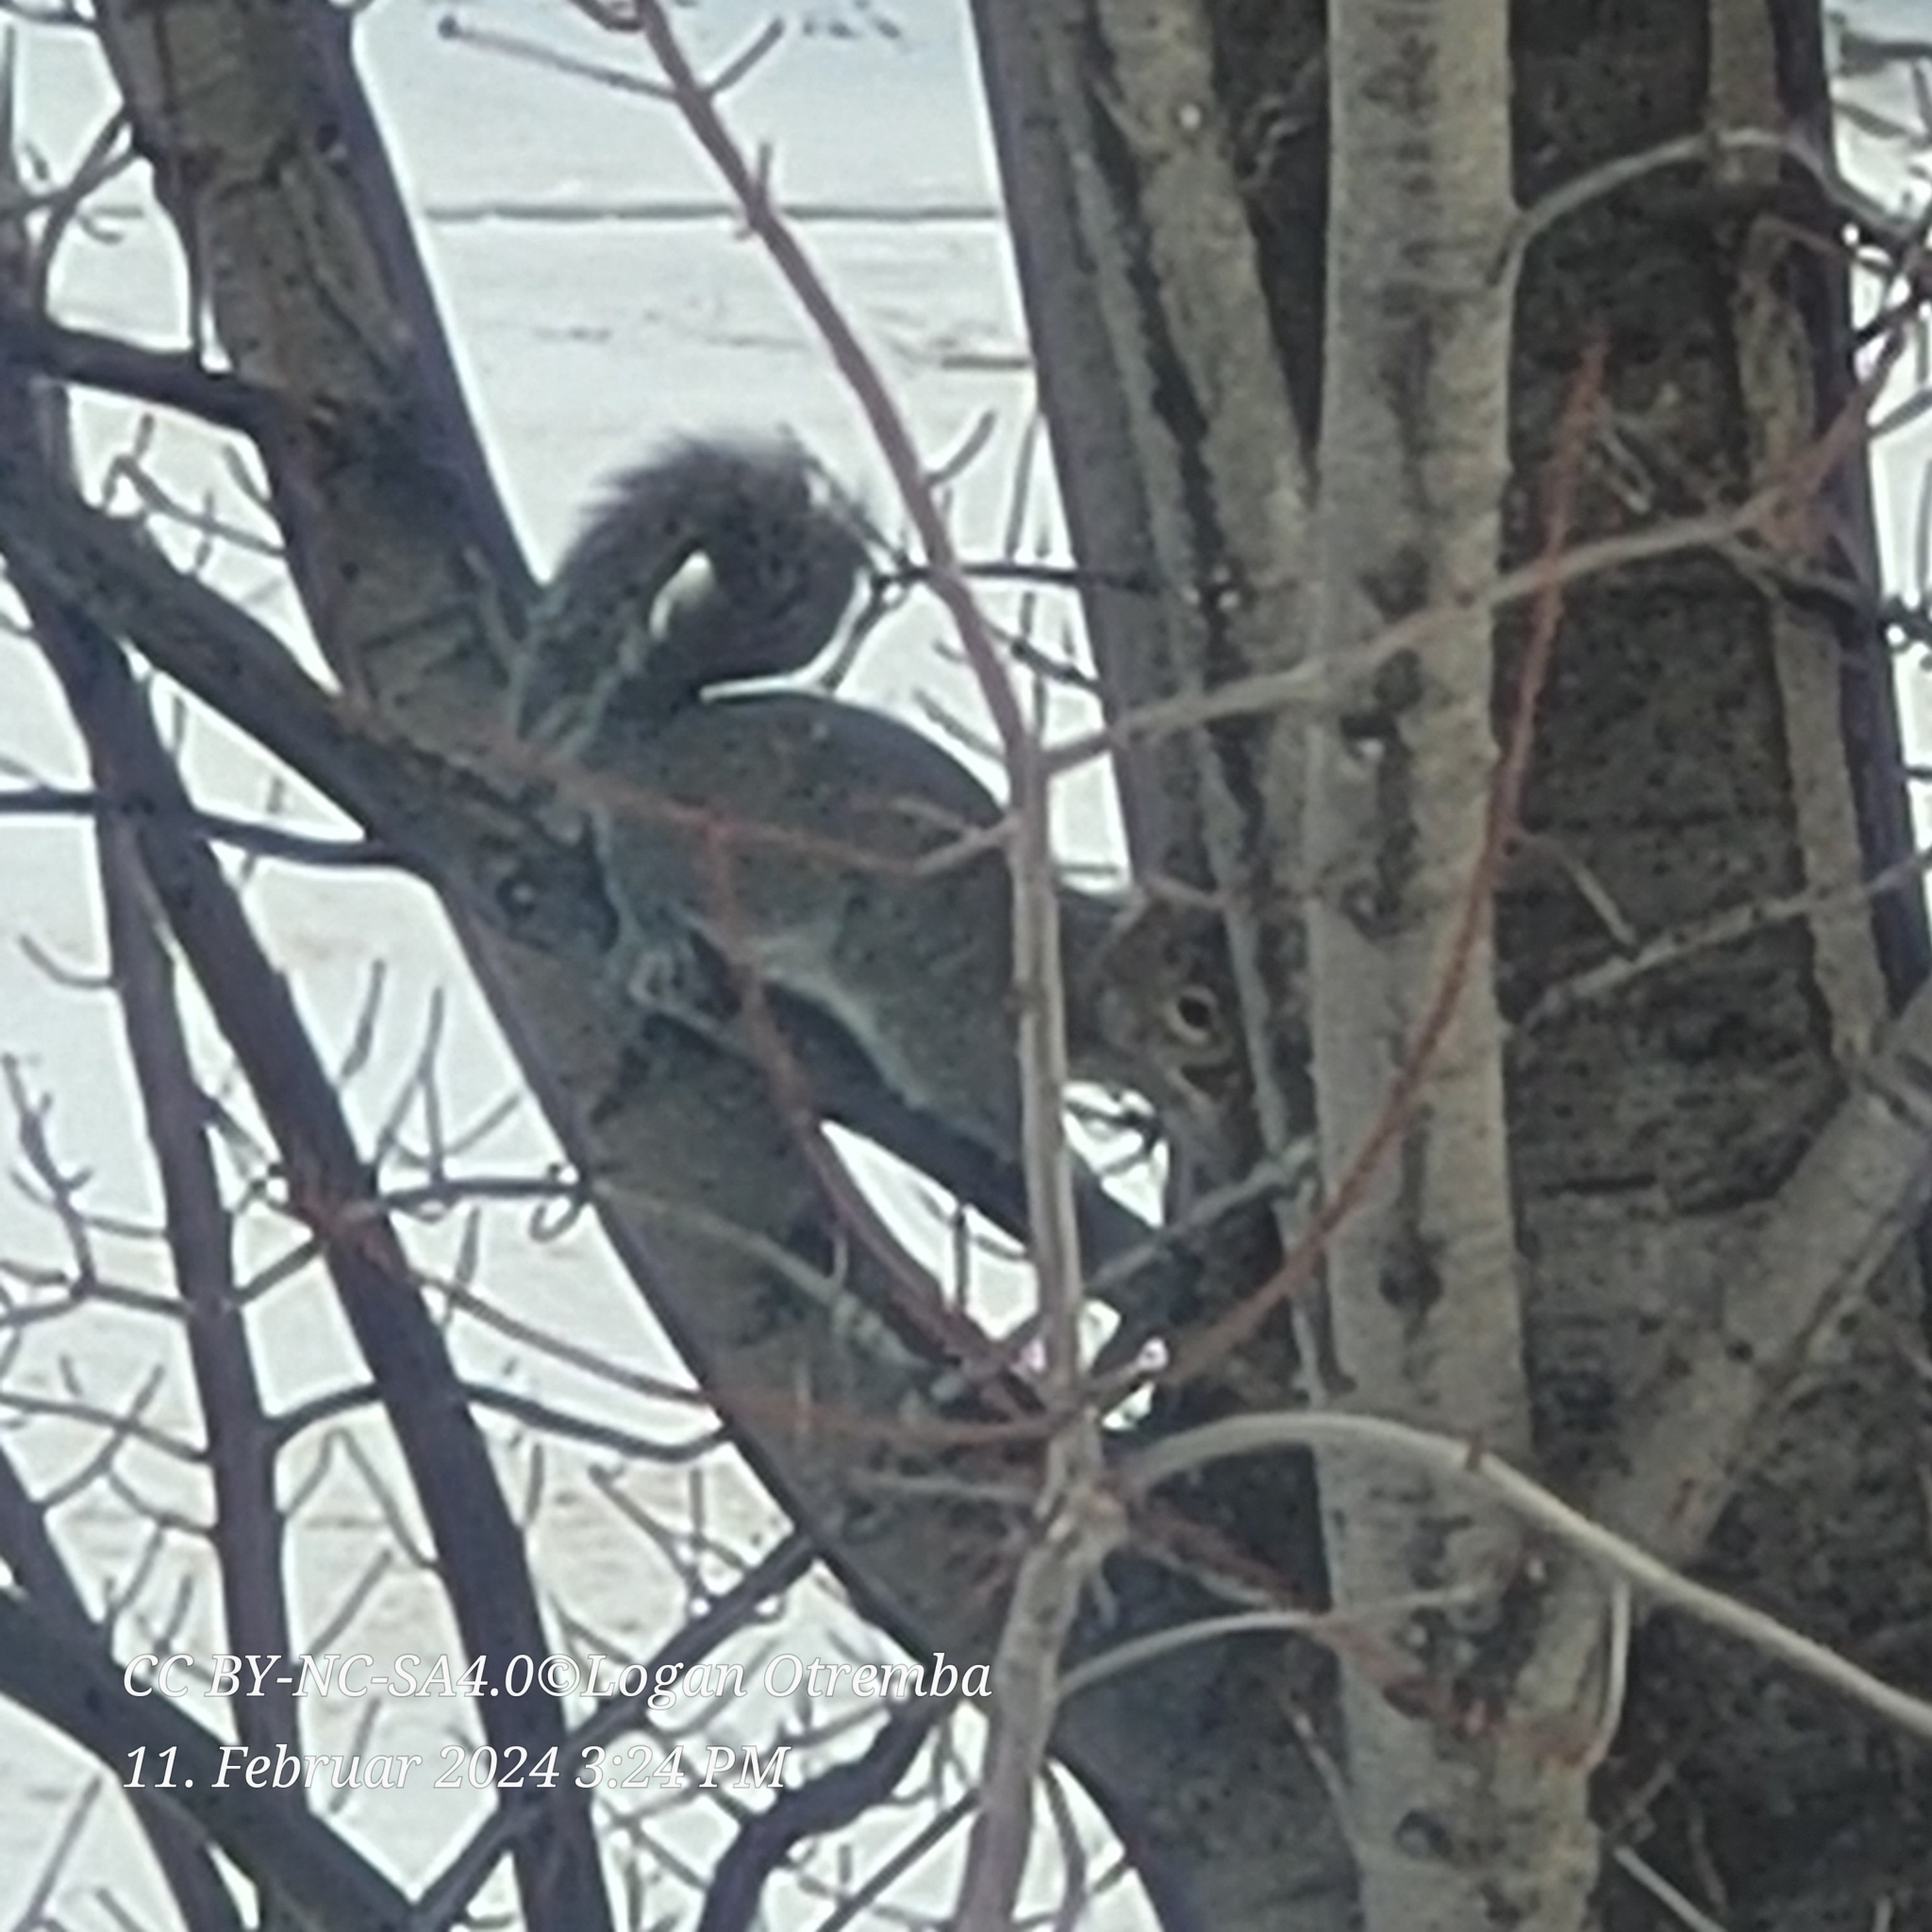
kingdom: Animalia
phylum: Chordata
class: Mammalia
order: Rodentia
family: Sciuridae
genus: Sciurus
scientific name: Sciurus carolinensis
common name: Eastern gray squirrel
